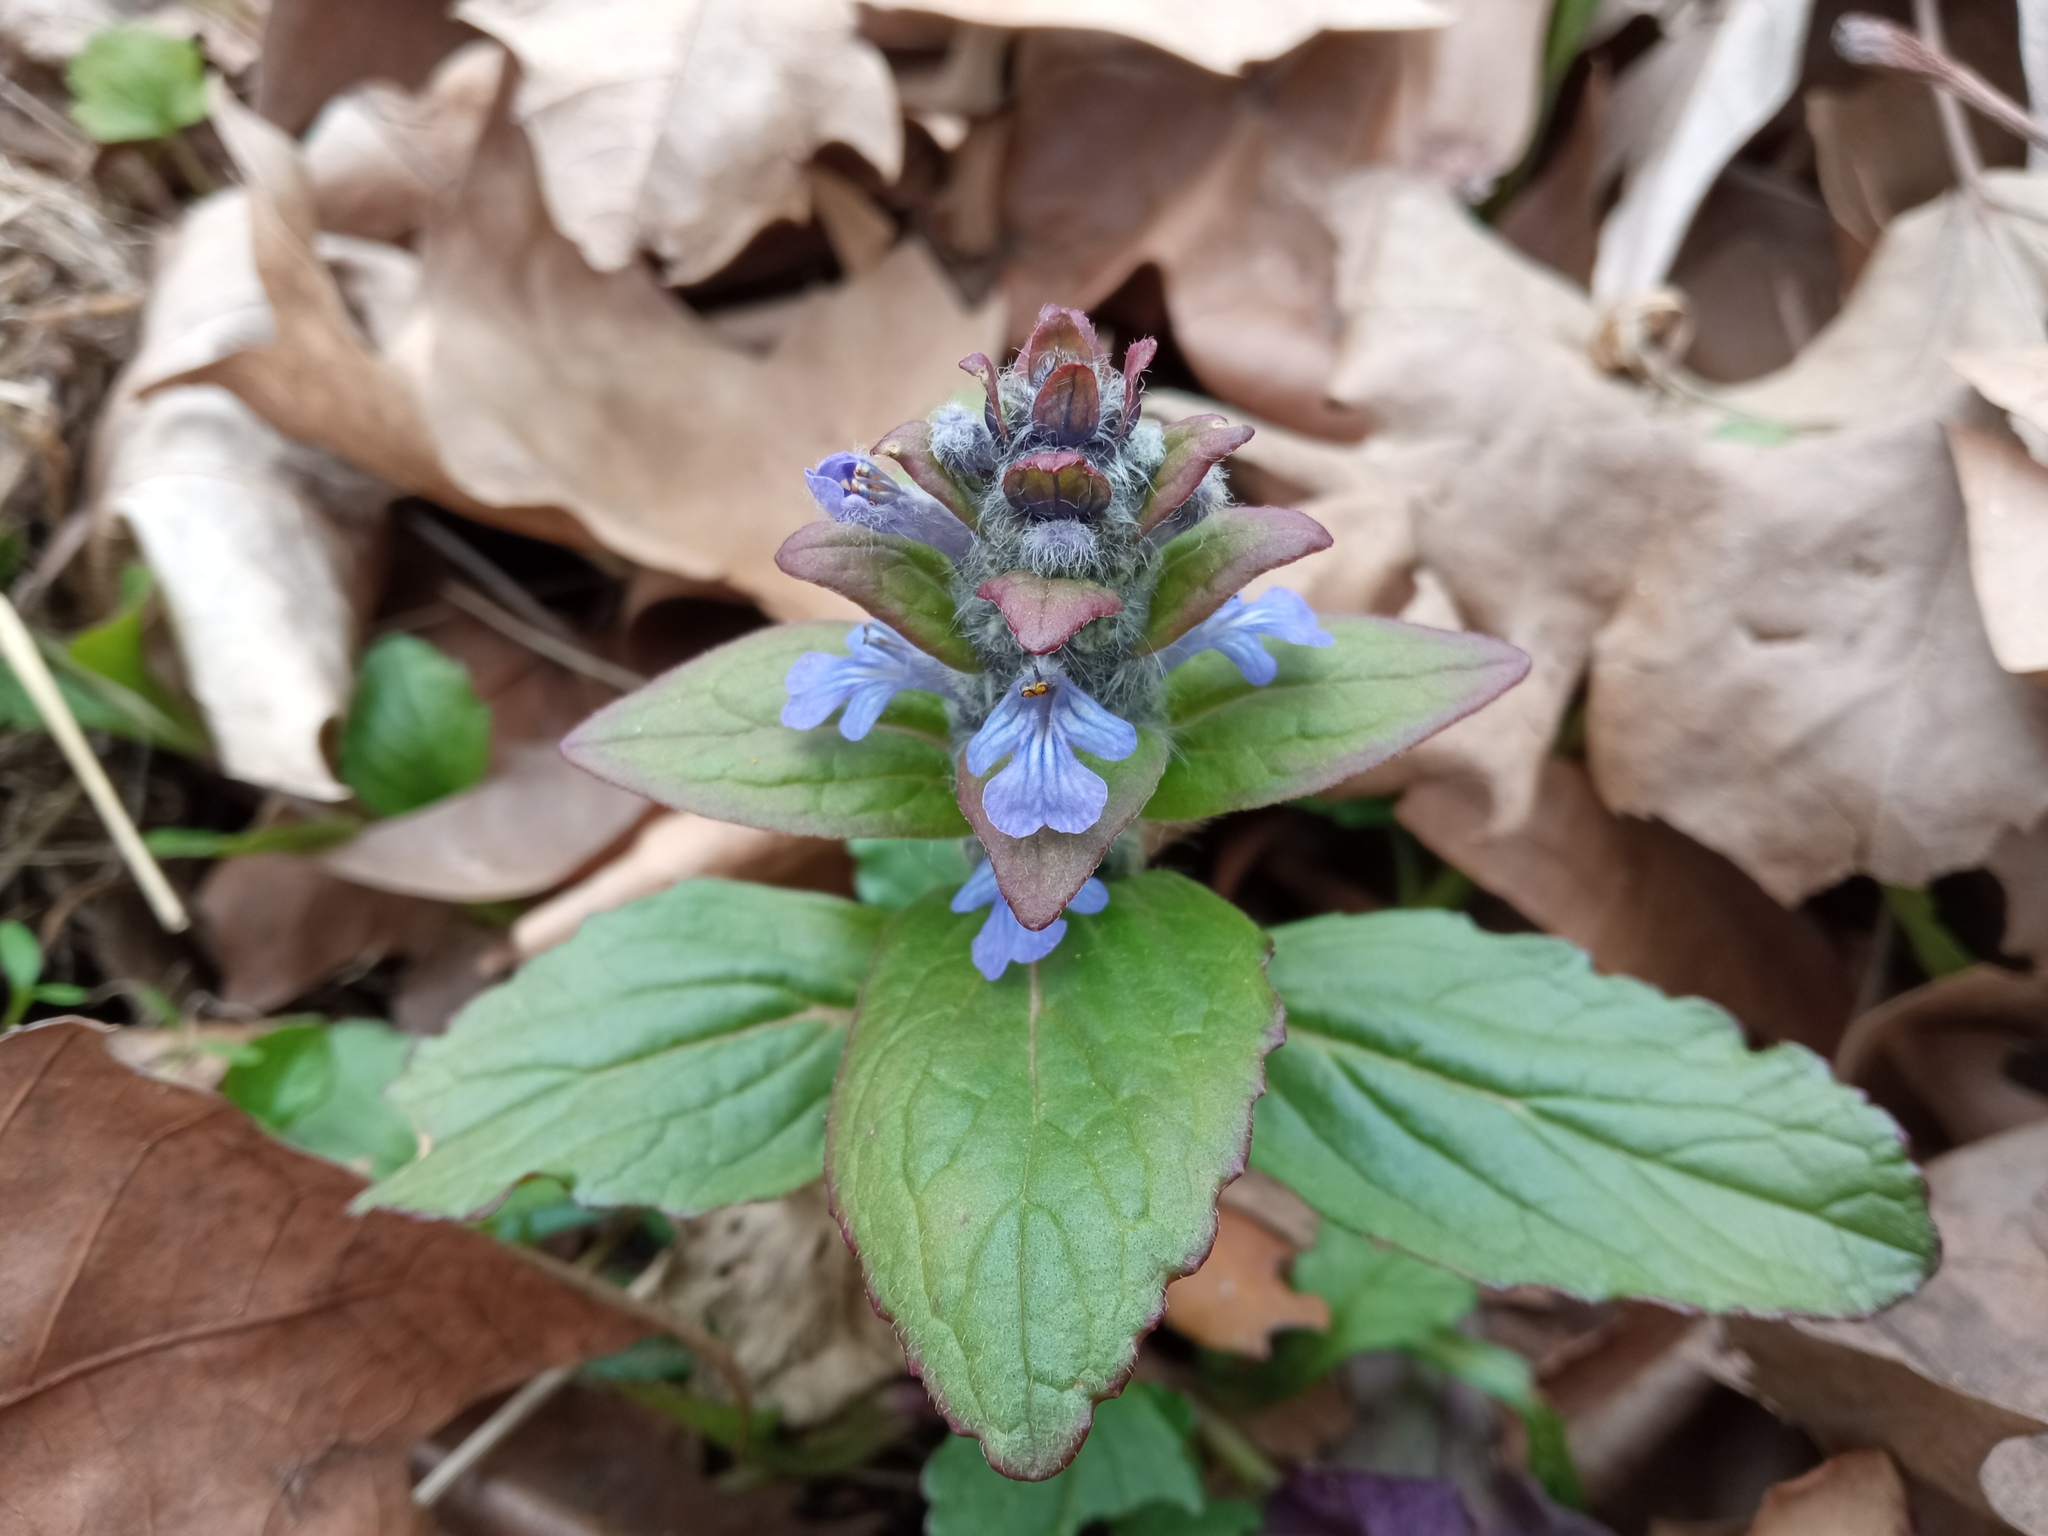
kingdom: Plantae
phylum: Tracheophyta
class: Magnoliopsida
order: Lamiales
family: Lamiaceae
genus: Ajuga
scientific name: Ajuga reptans
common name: Bugle
